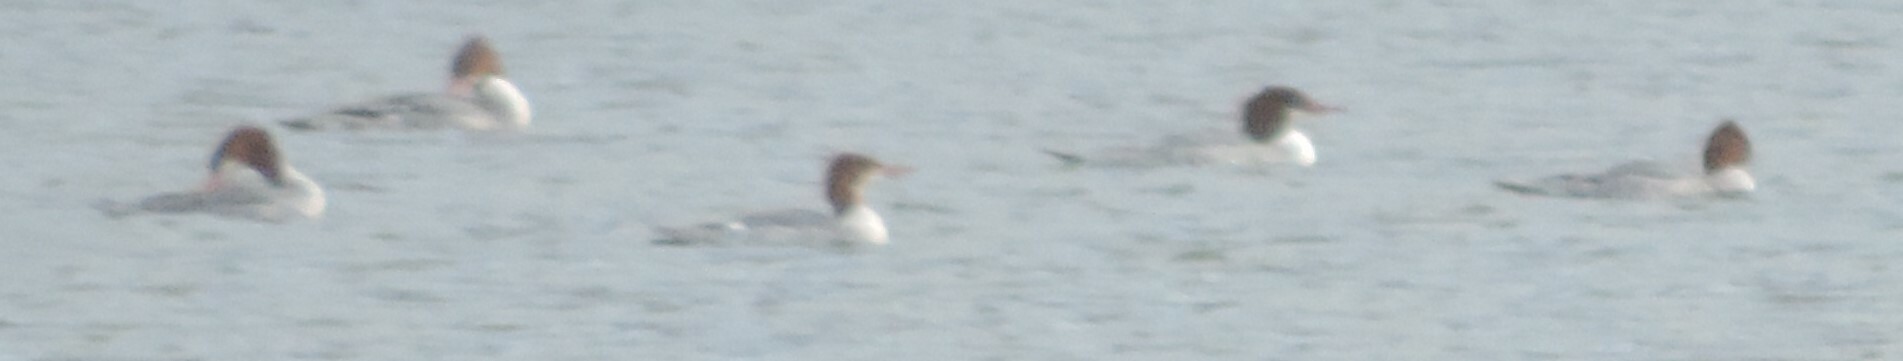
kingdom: Animalia
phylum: Chordata
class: Aves
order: Anseriformes
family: Anatidae
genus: Mergus
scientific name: Mergus merganser
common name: Common merganser
